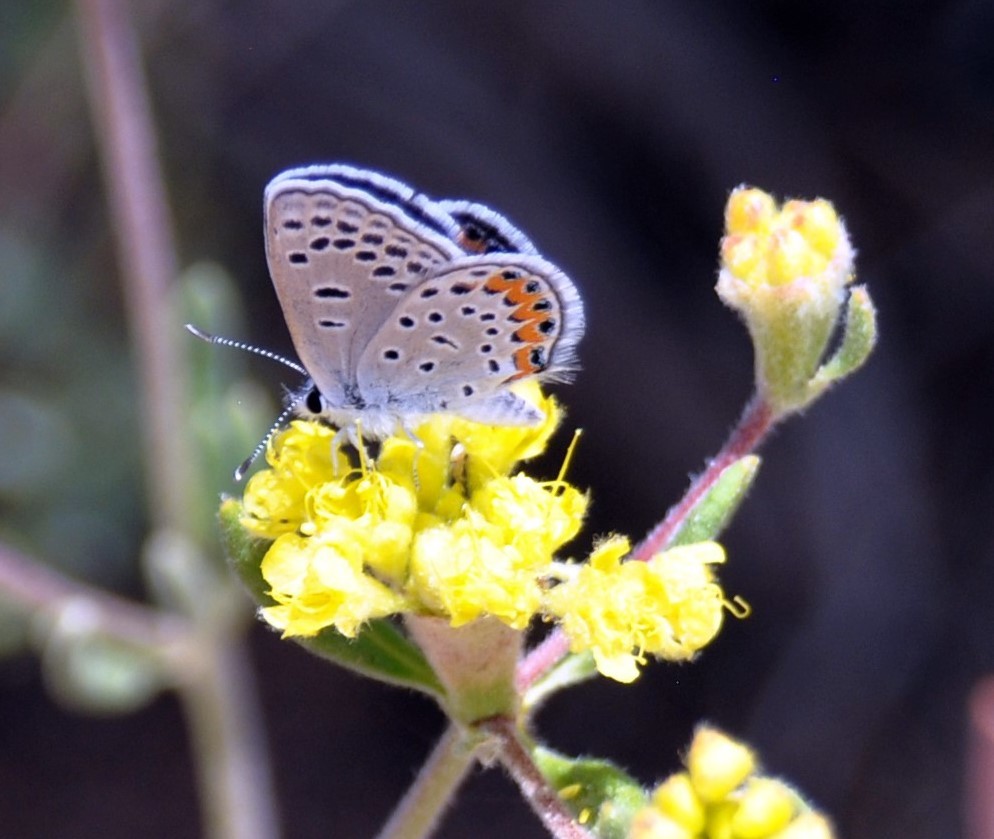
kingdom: Animalia
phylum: Arthropoda
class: Insecta
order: Lepidoptera
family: Lycaenidae
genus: Icaricia
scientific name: Icaricia lupini
